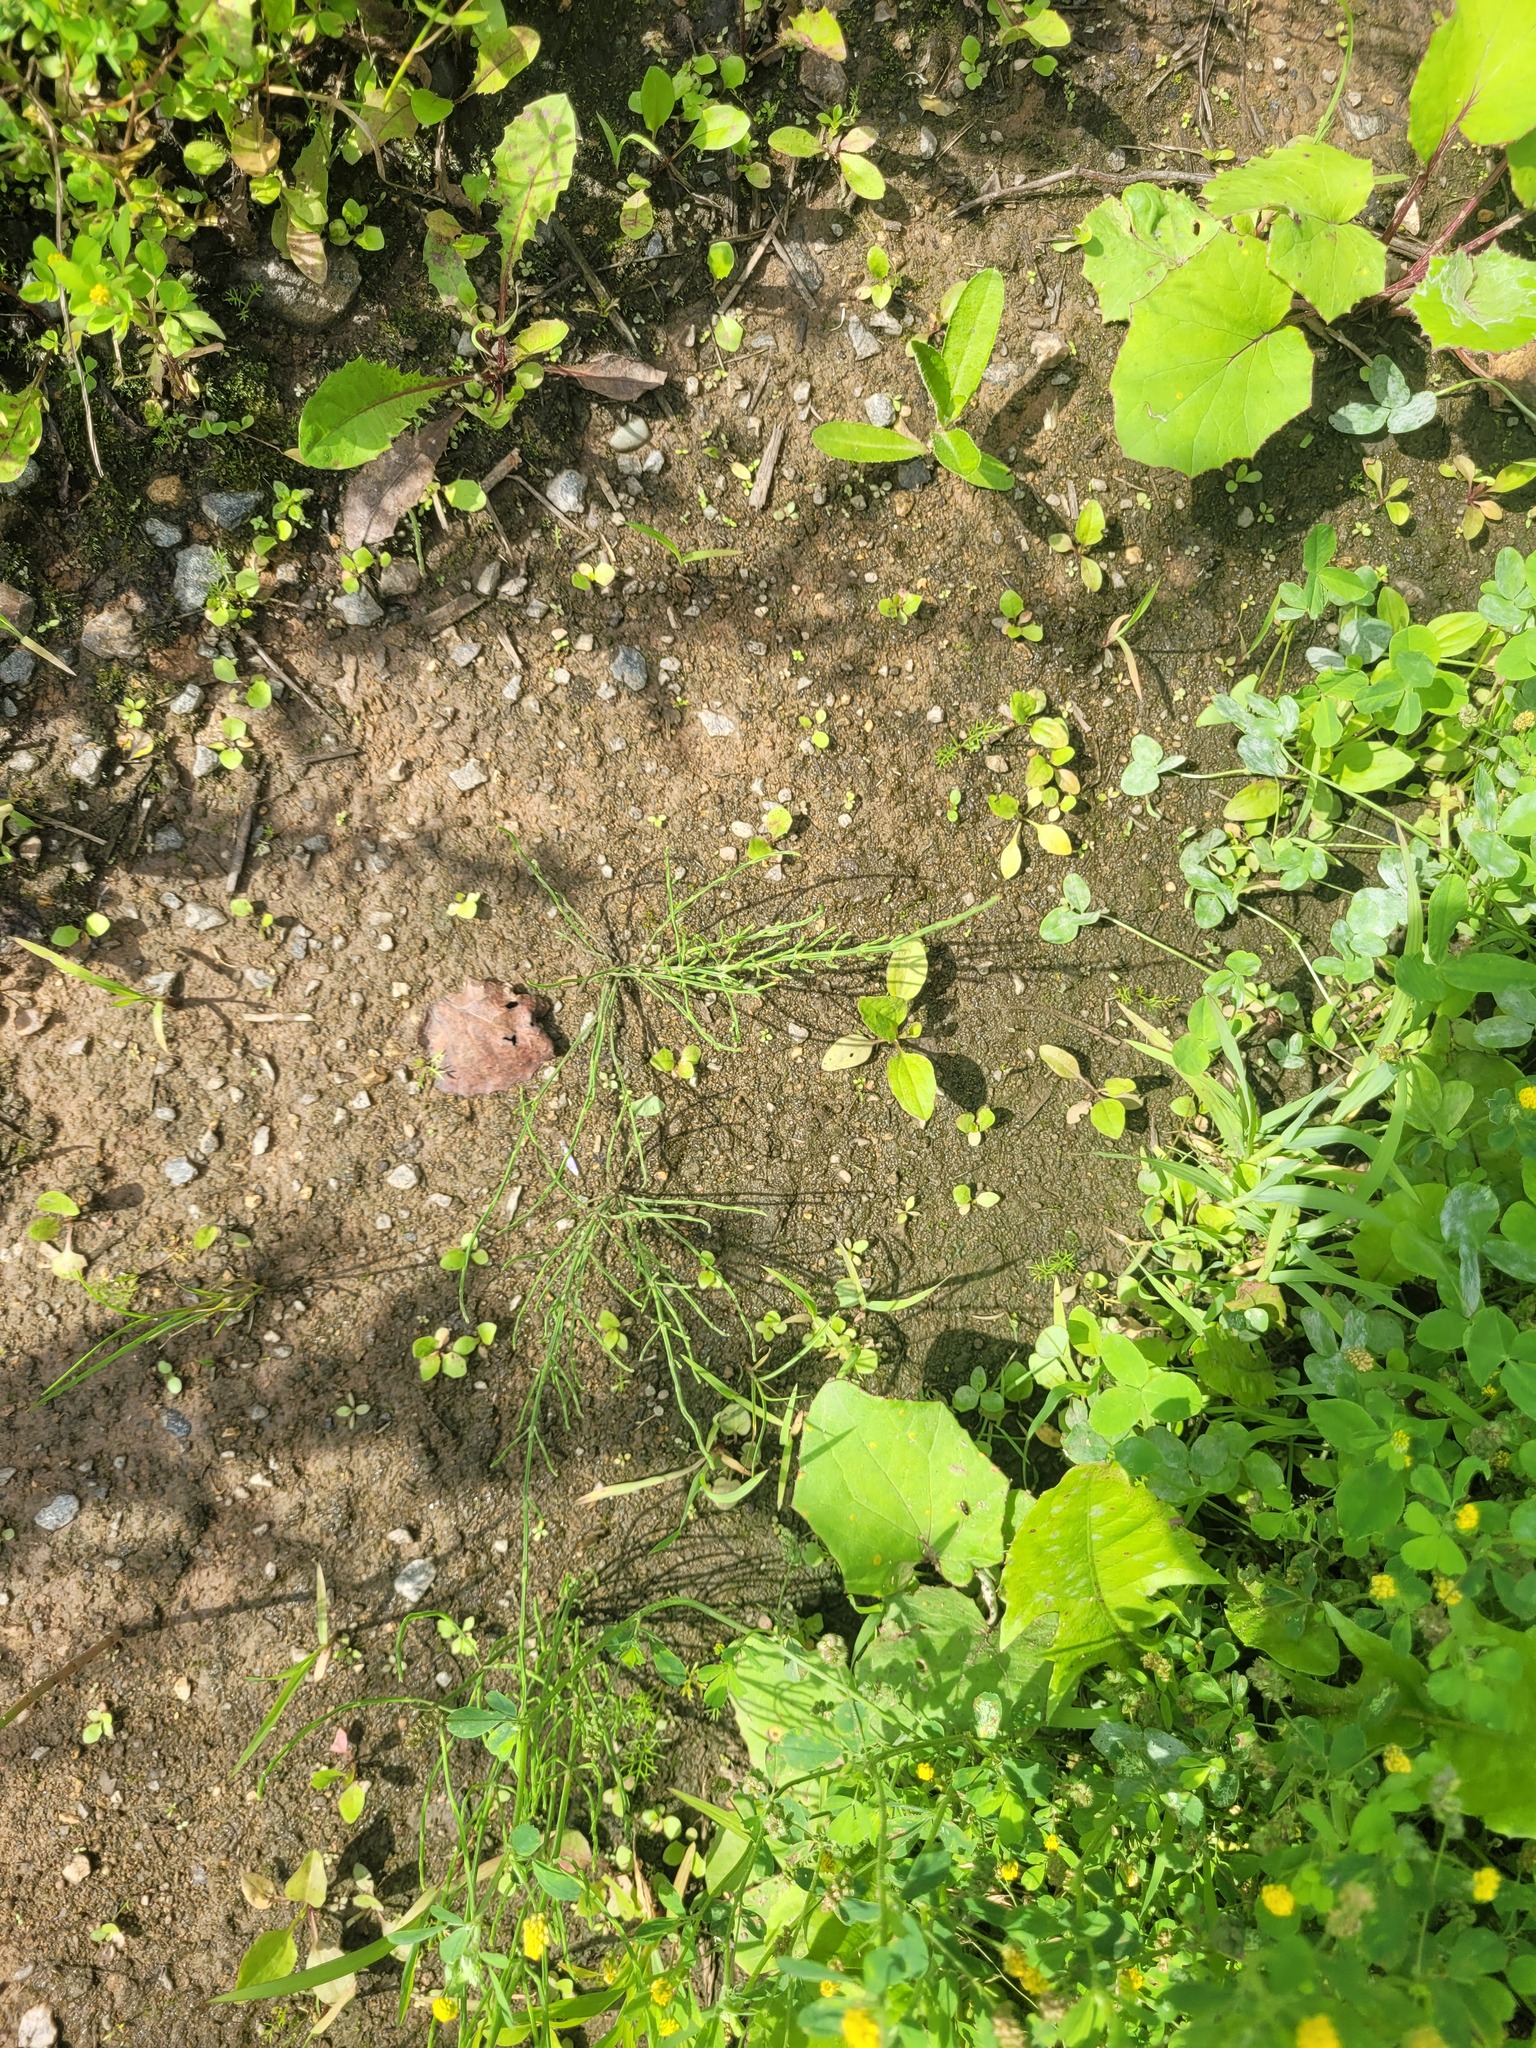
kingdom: Plantae
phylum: Tracheophyta
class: Polypodiopsida
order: Equisetales
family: Equisetaceae
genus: Equisetum
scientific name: Equisetum arvense
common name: Field horsetail
